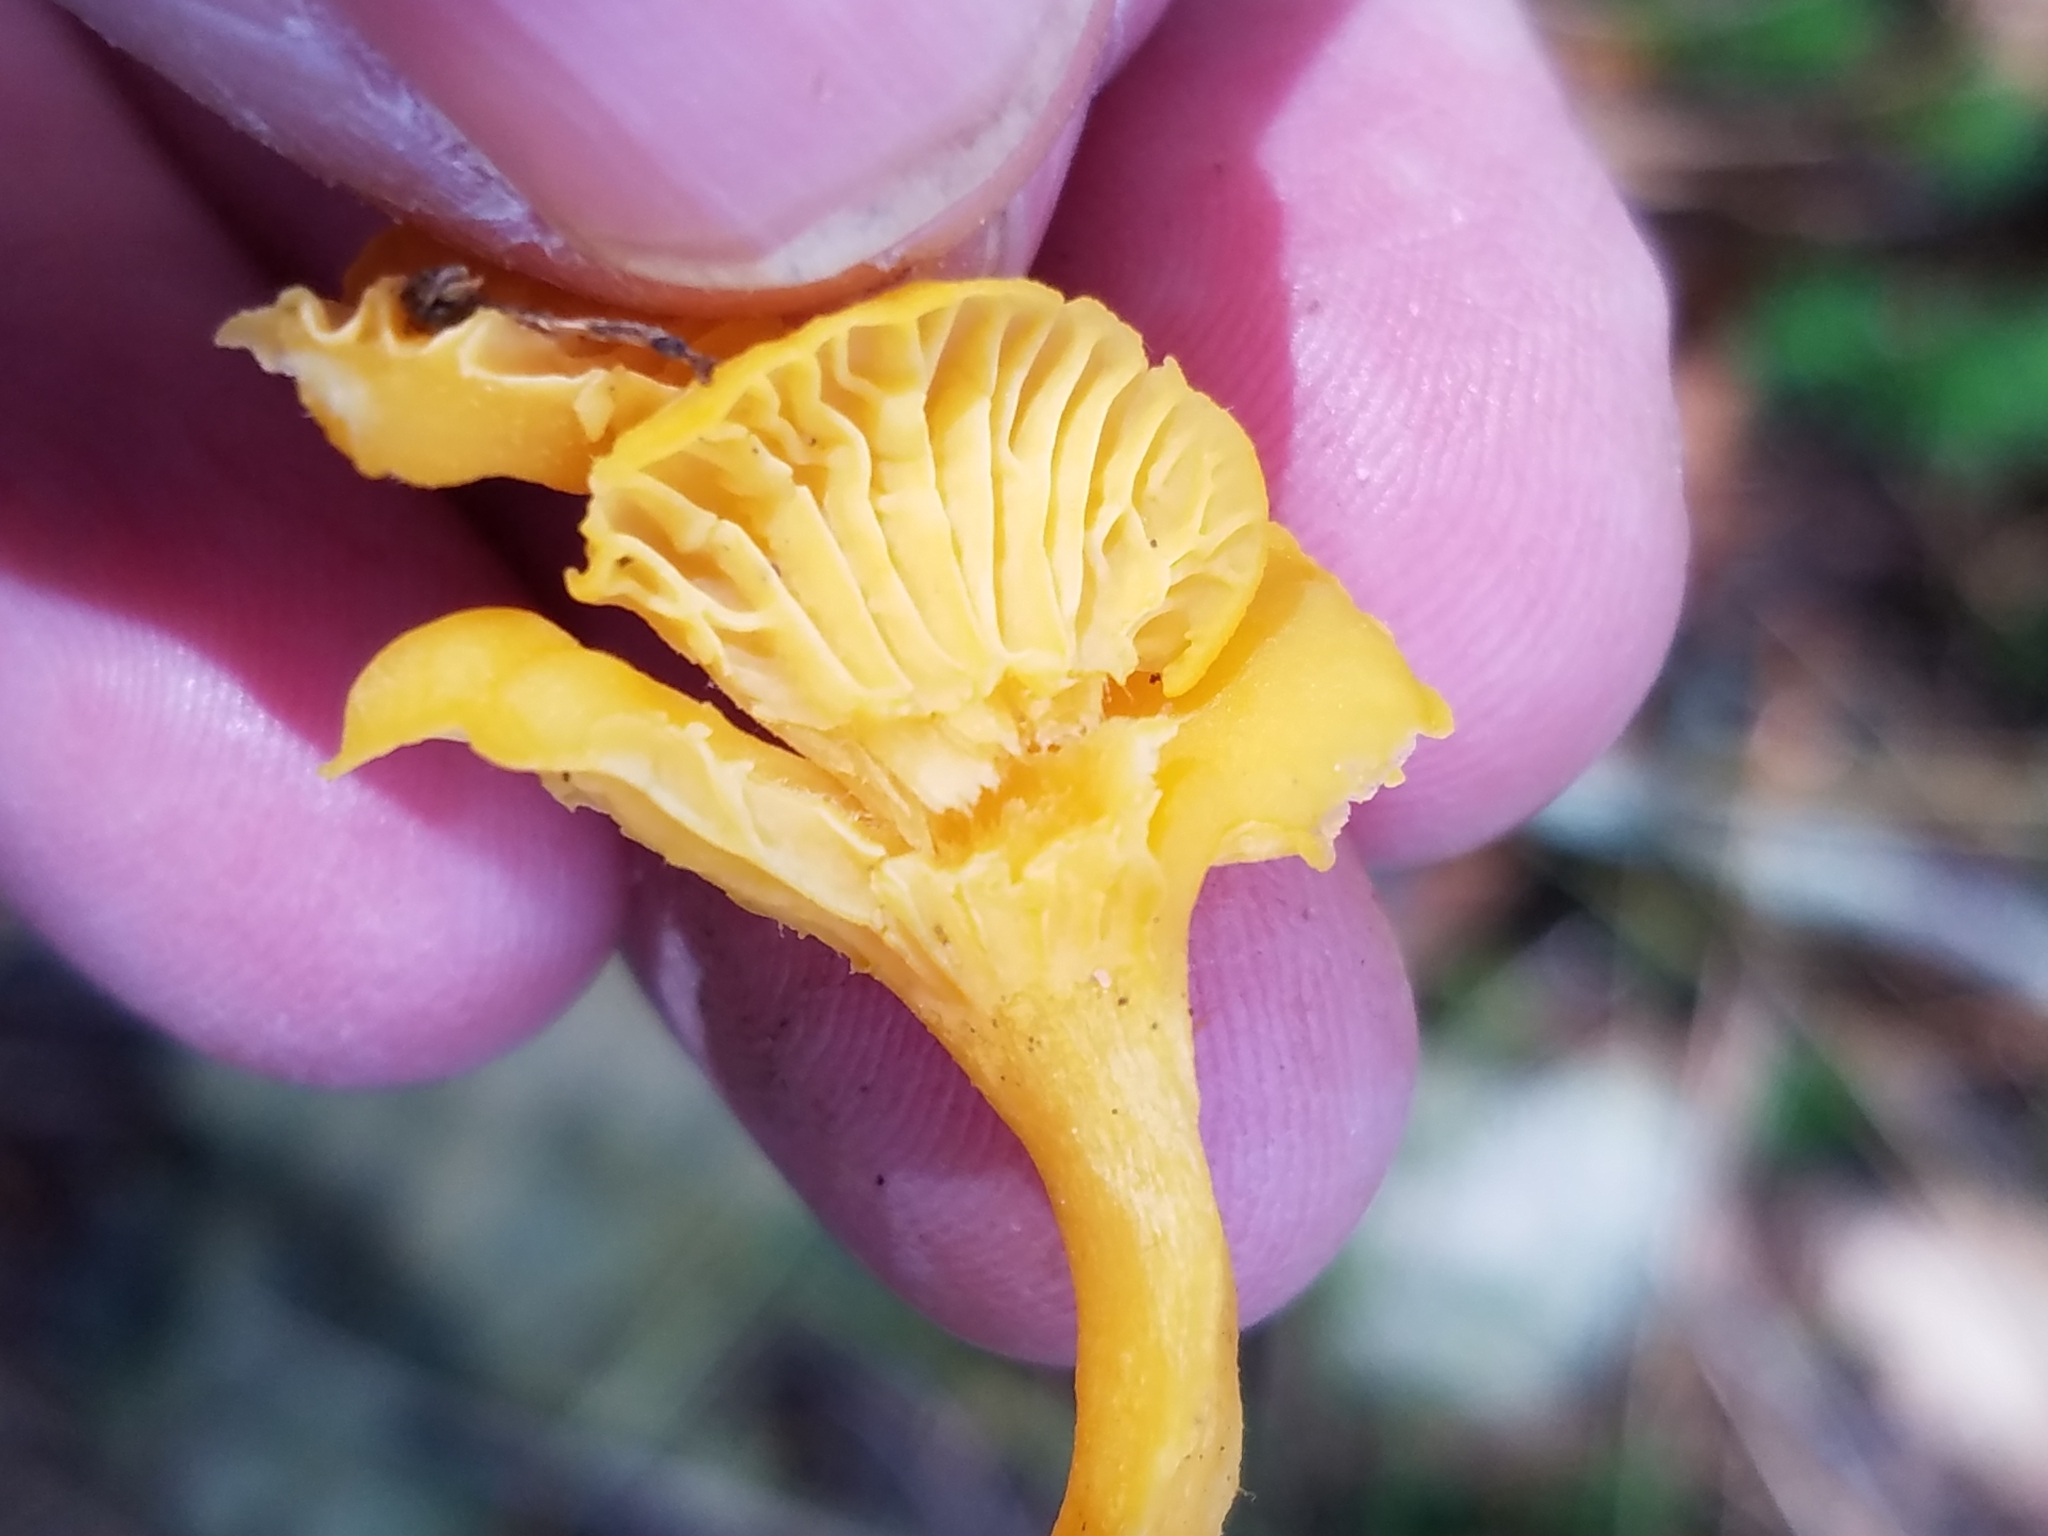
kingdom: Fungi
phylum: Basidiomycota
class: Agaricomycetes
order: Cantharellales
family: Hydnaceae
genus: Cantharellus
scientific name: Cantharellus minor
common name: Small chanterelle
